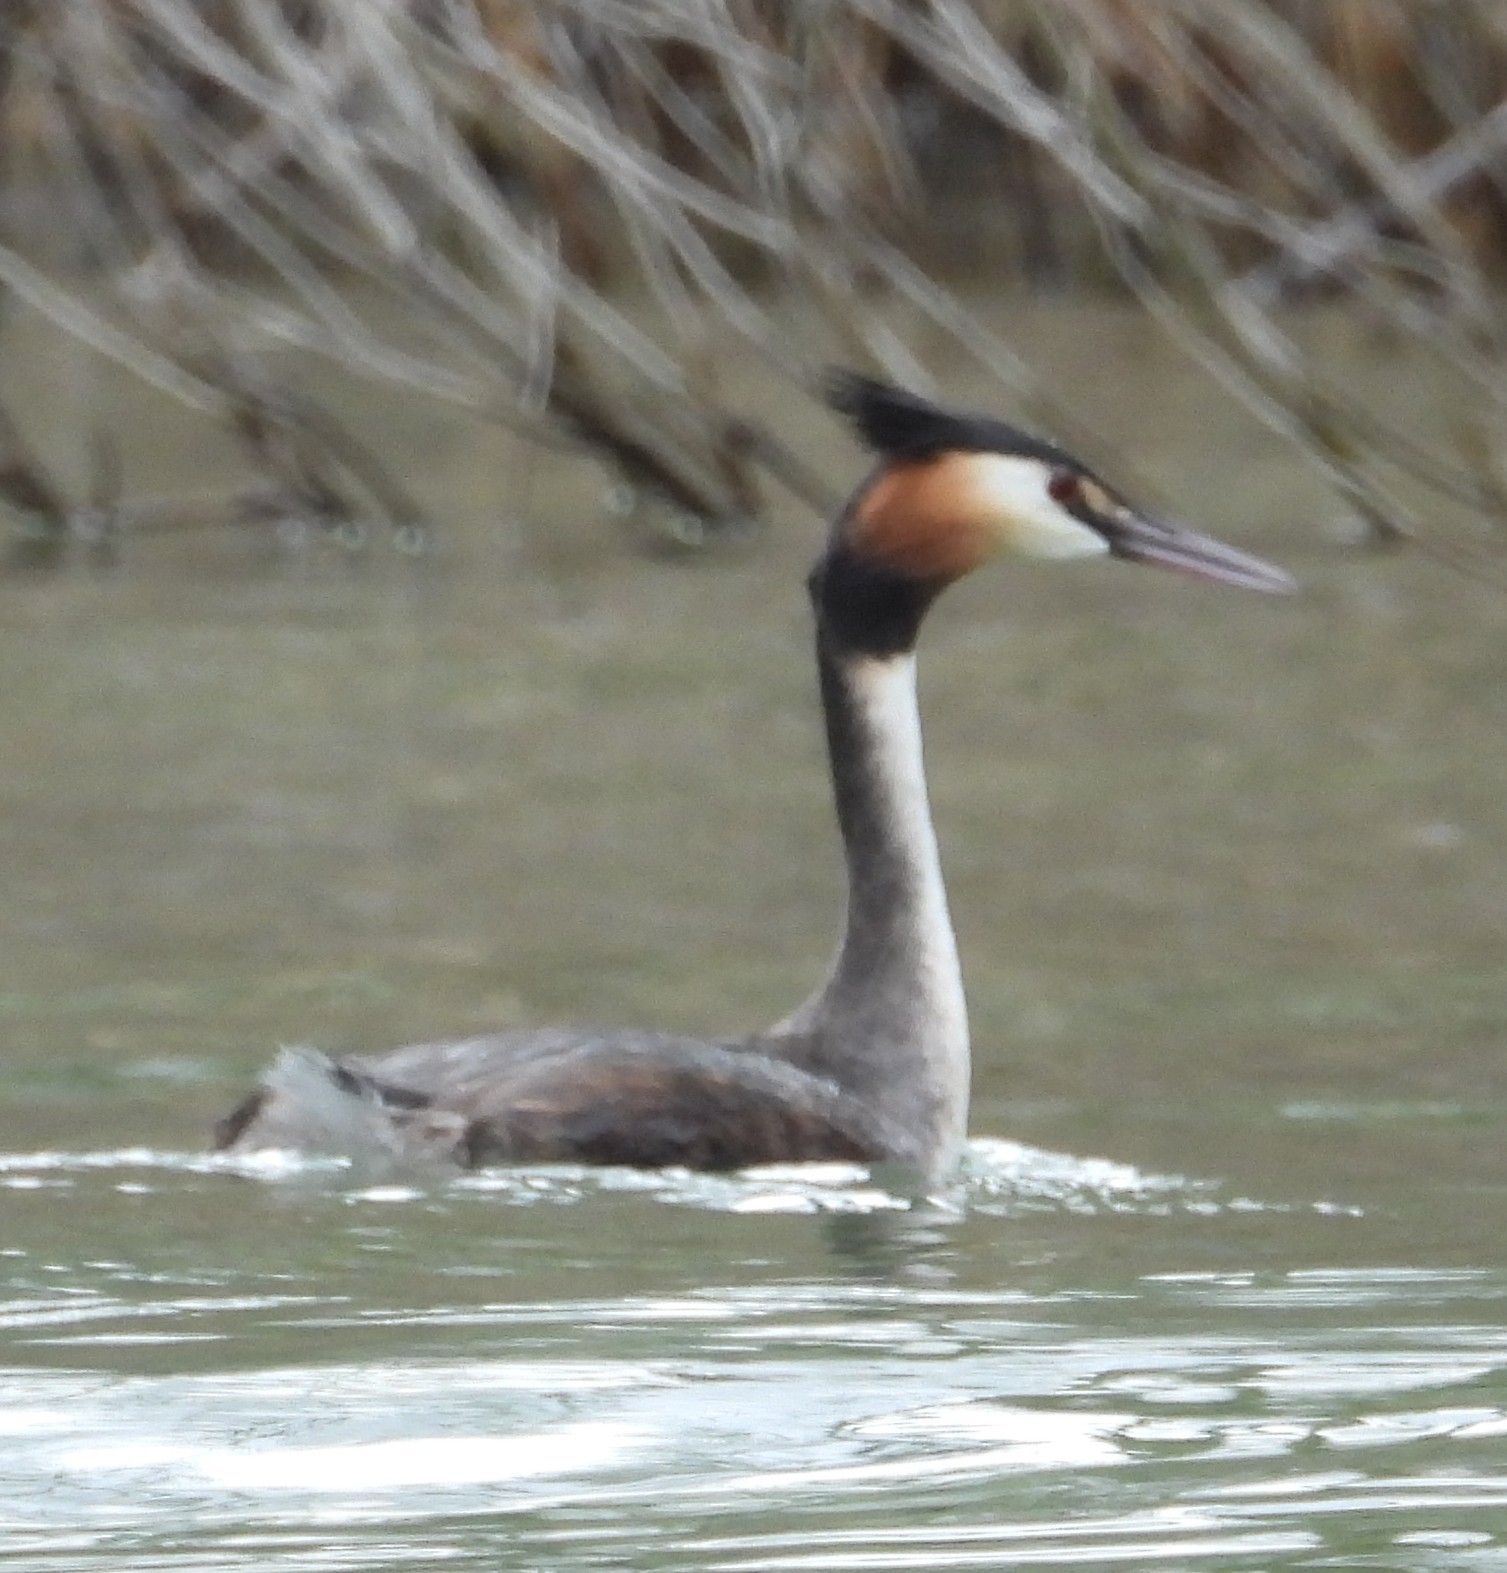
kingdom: Animalia
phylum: Chordata
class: Aves
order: Podicipediformes
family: Podicipedidae
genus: Podiceps
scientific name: Podiceps cristatus
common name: Great crested grebe
